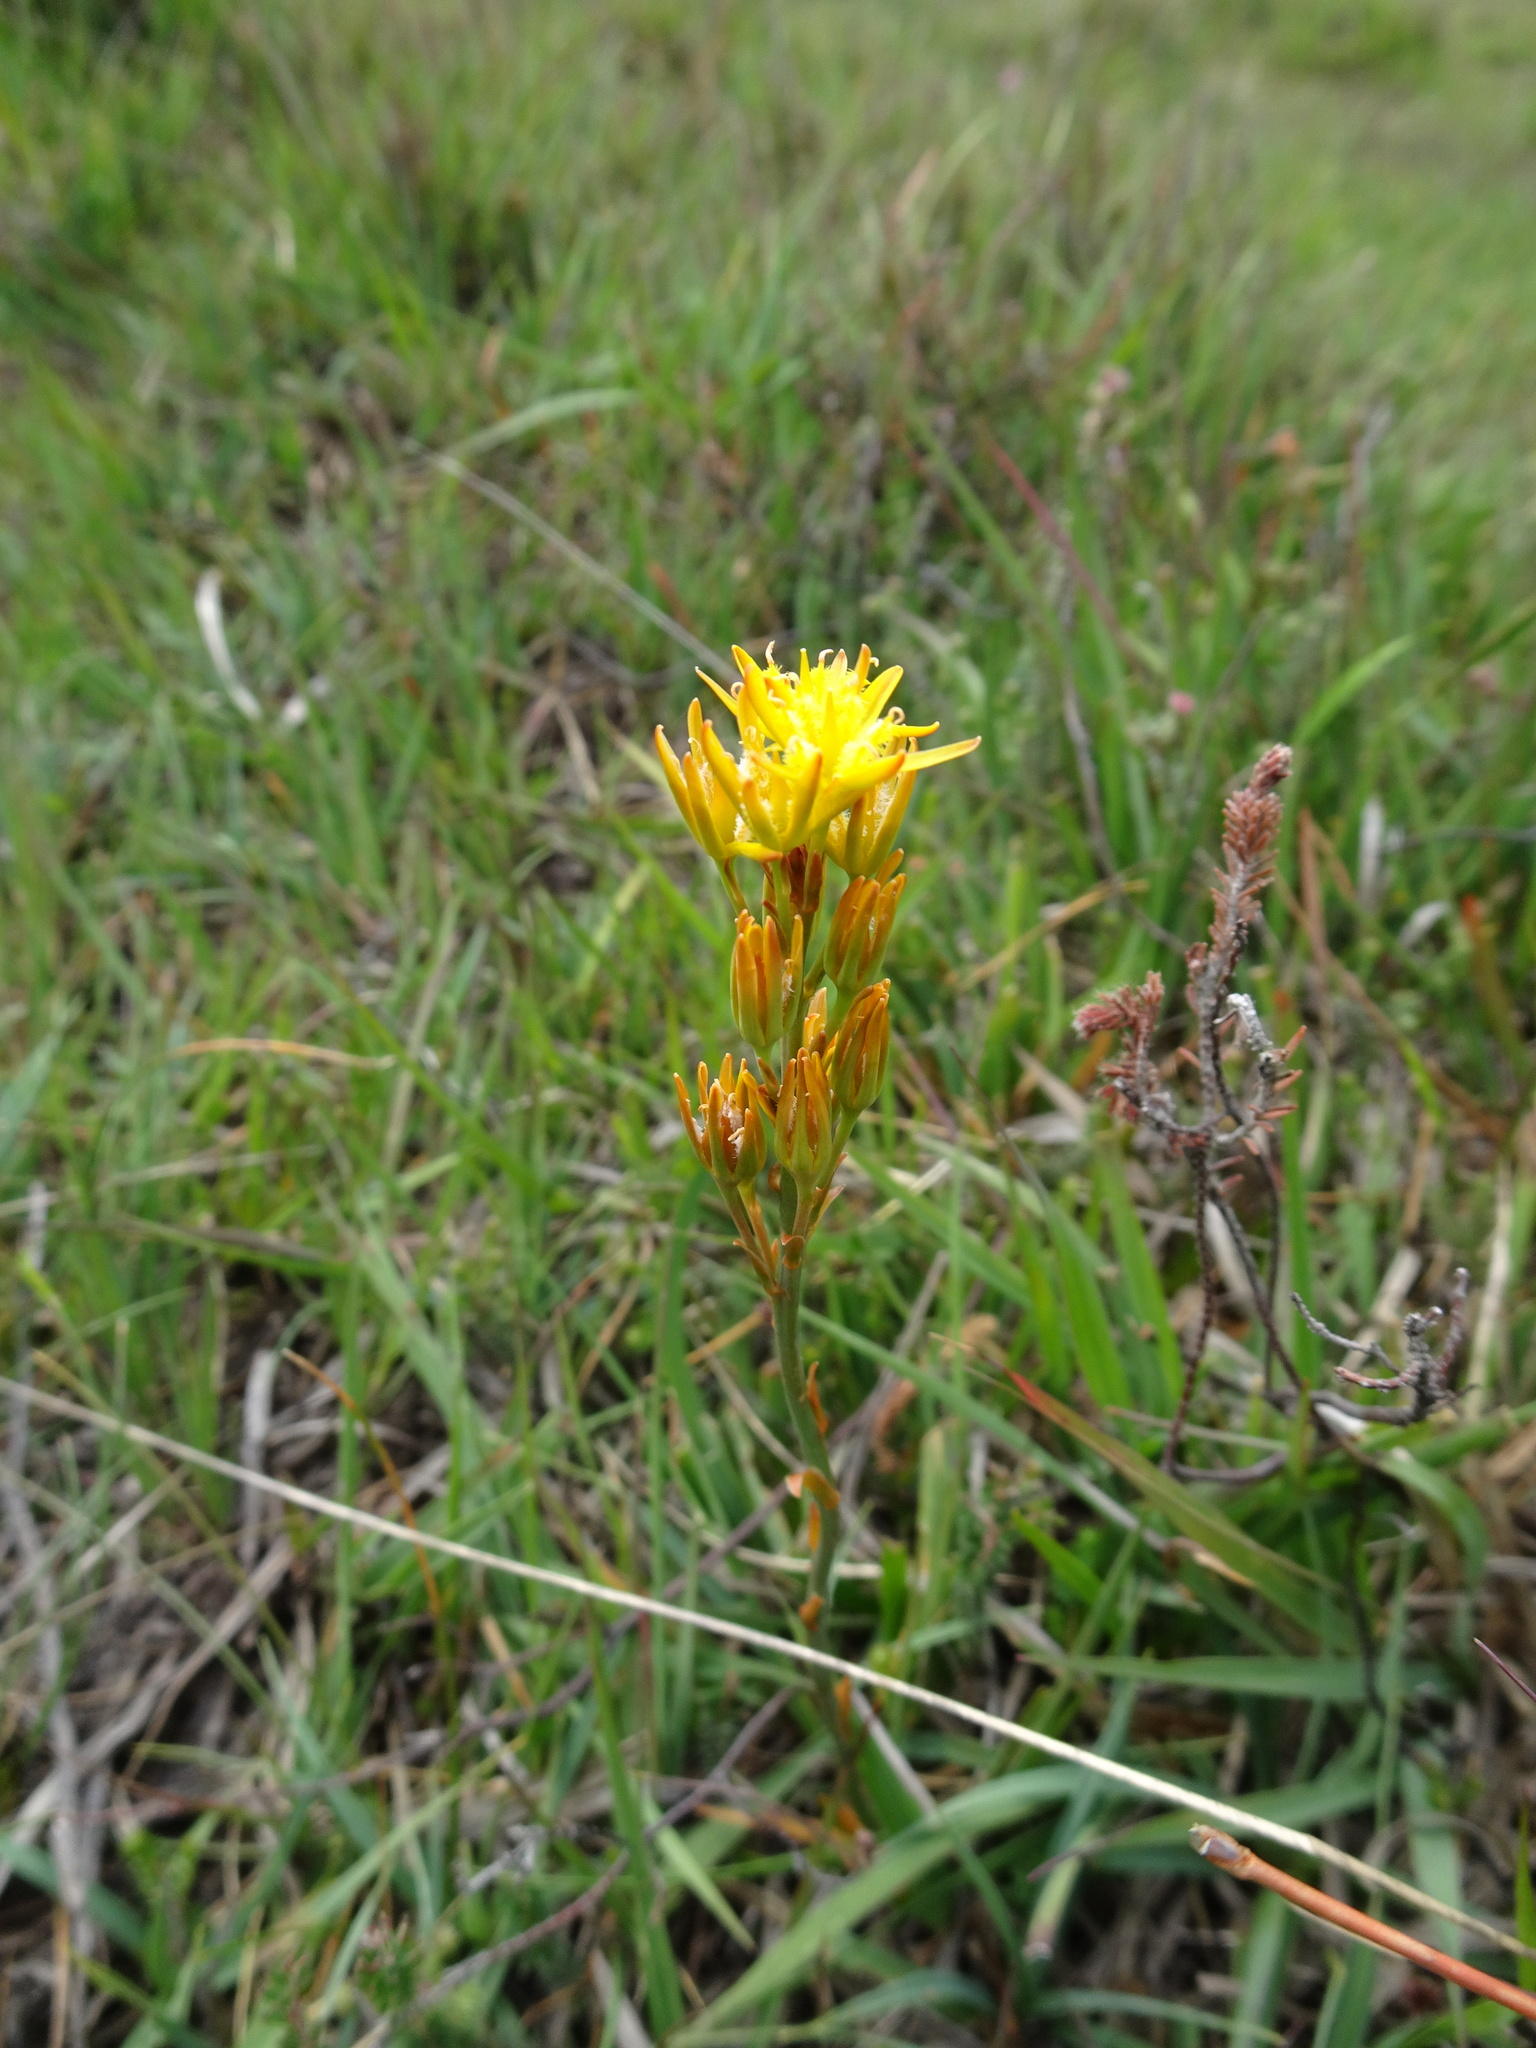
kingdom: Plantae
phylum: Tracheophyta
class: Liliopsida
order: Dioscoreales
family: Nartheciaceae
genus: Narthecium
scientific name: Narthecium ossifragum
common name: Bog asphodel
